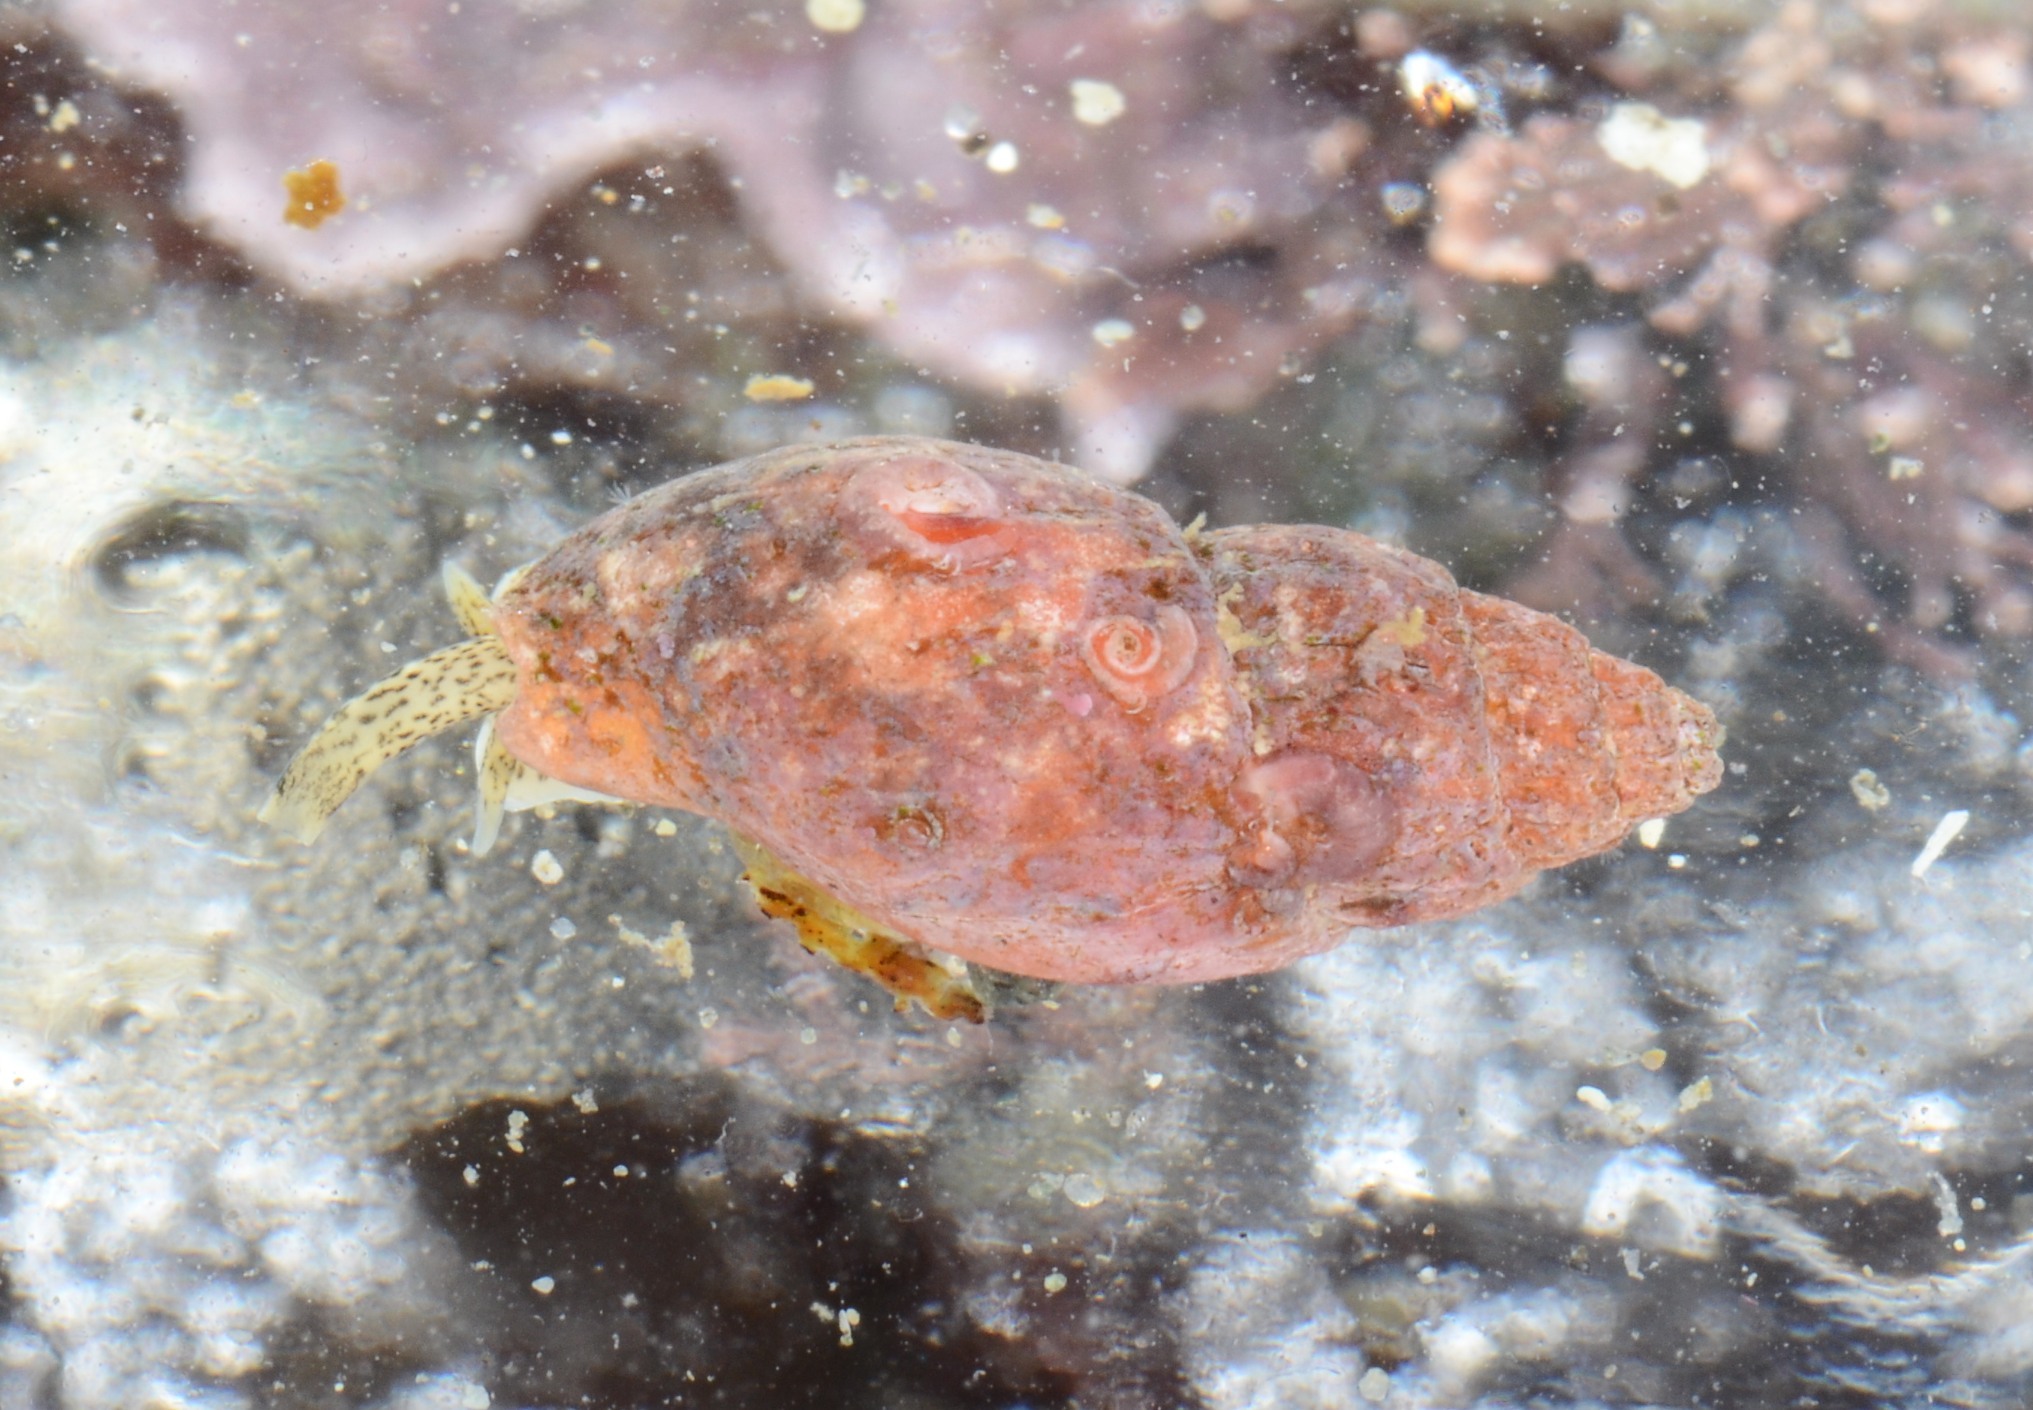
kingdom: Animalia
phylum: Mollusca
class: Gastropoda
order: Neogastropoda
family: Columbellidae
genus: Amphissa
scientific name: Amphissa versicolor
